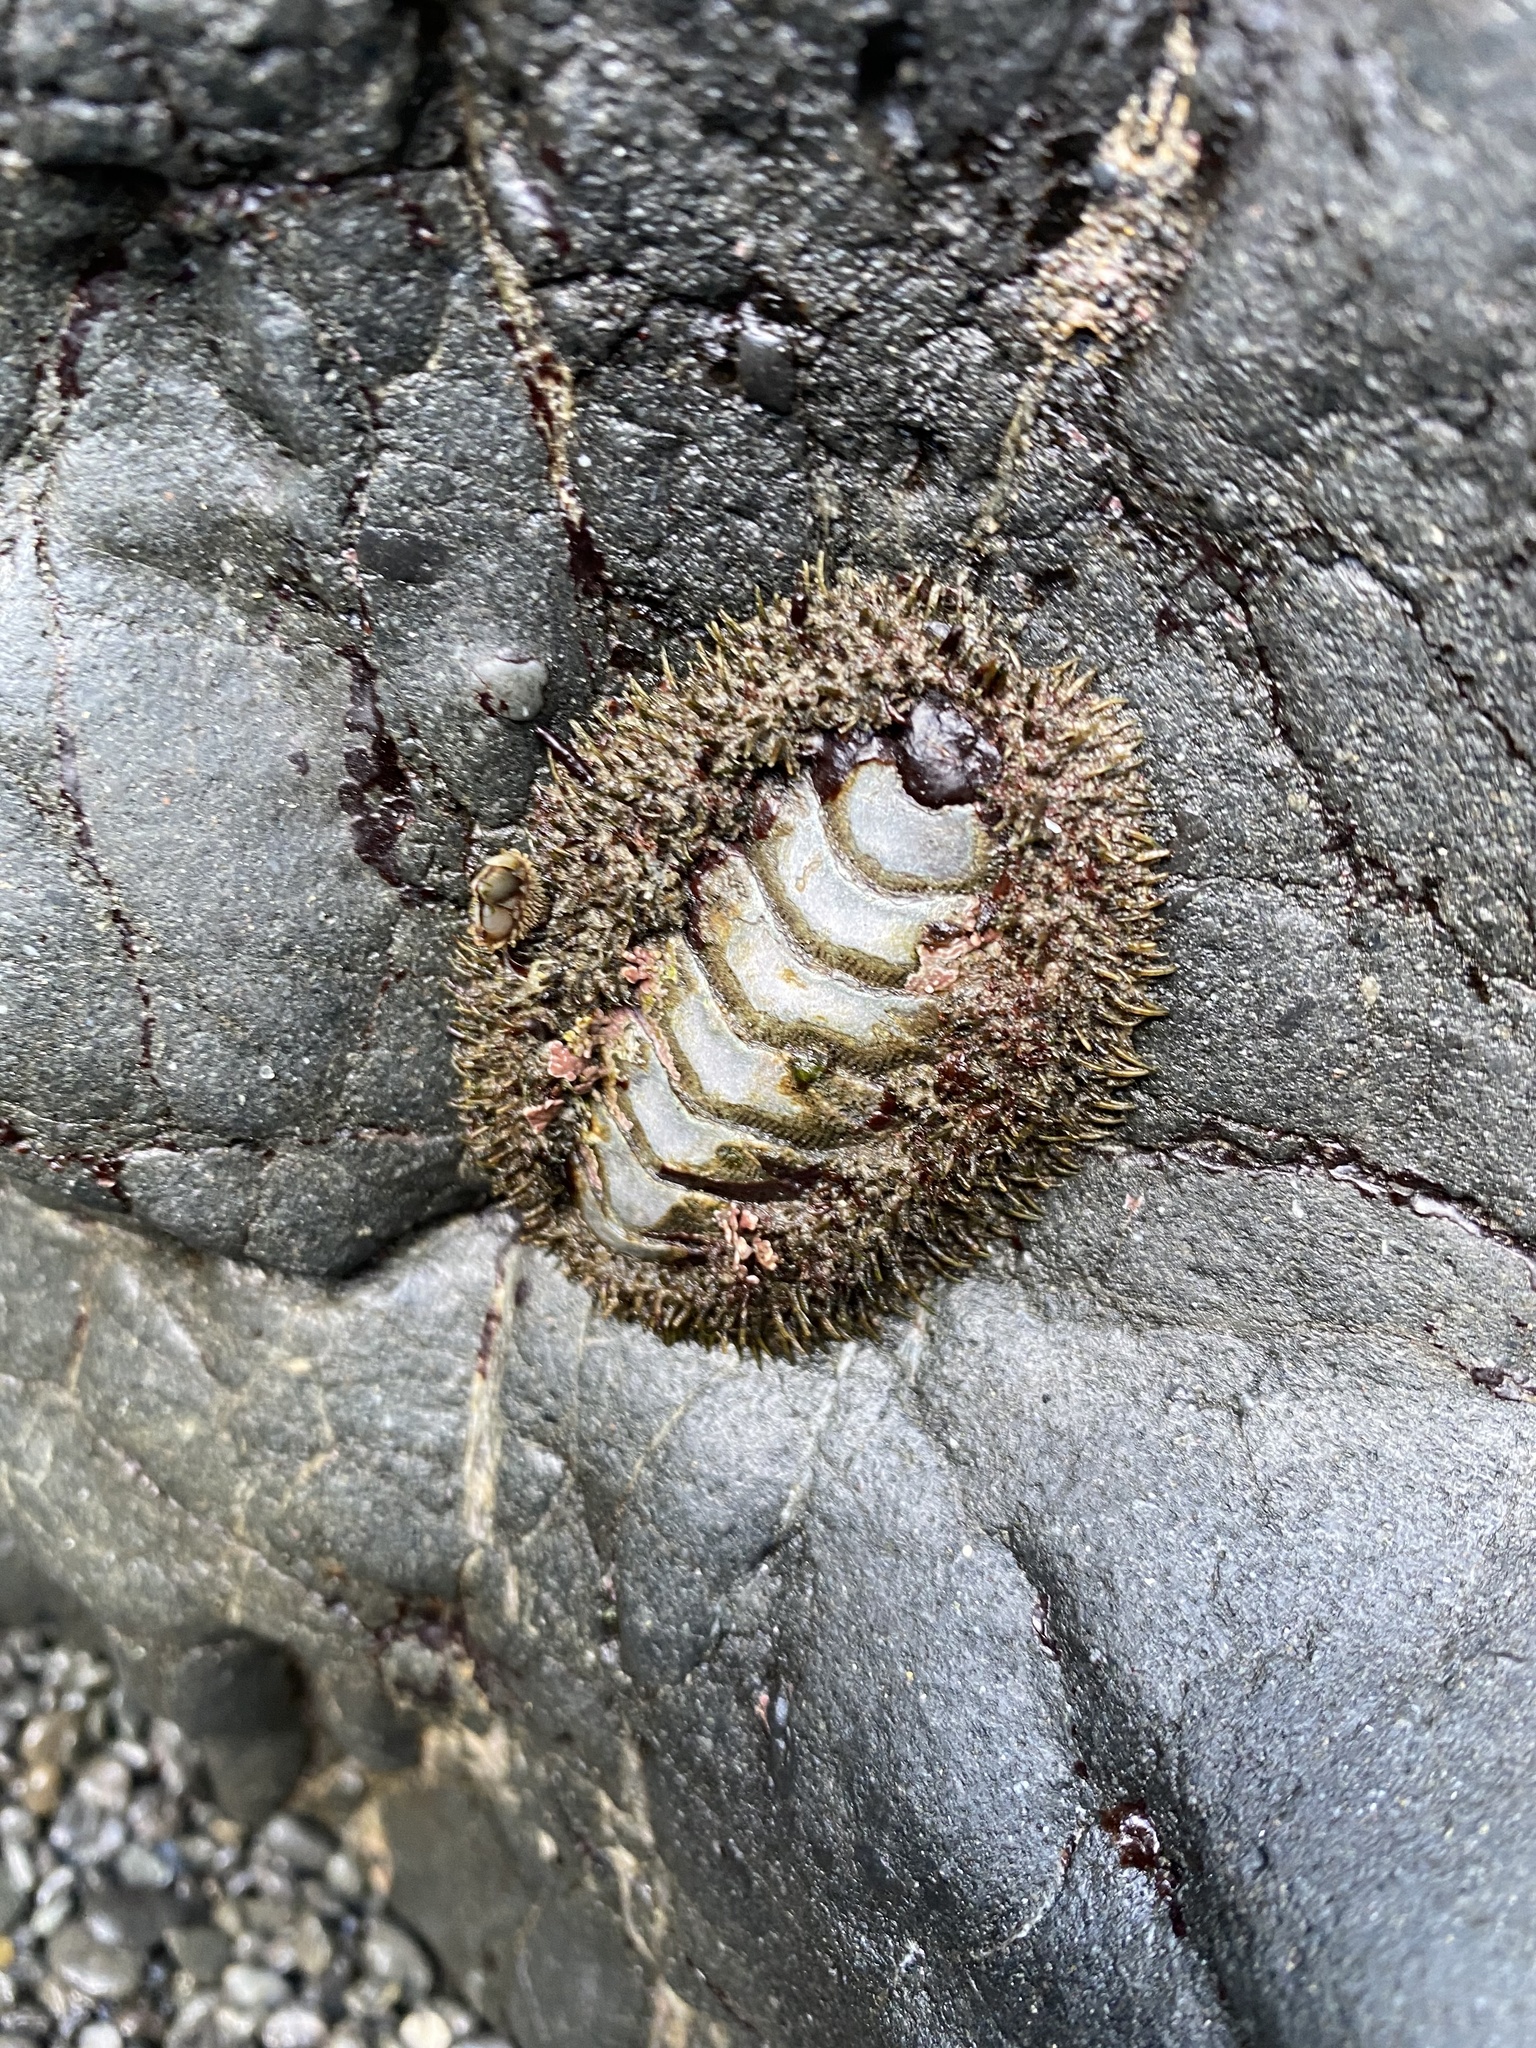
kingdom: Animalia
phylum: Mollusca
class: Polyplacophora
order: Chitonida
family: Mopaliidae
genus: Mopalia
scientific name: Mopalia muscosa
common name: Mossy chiton
